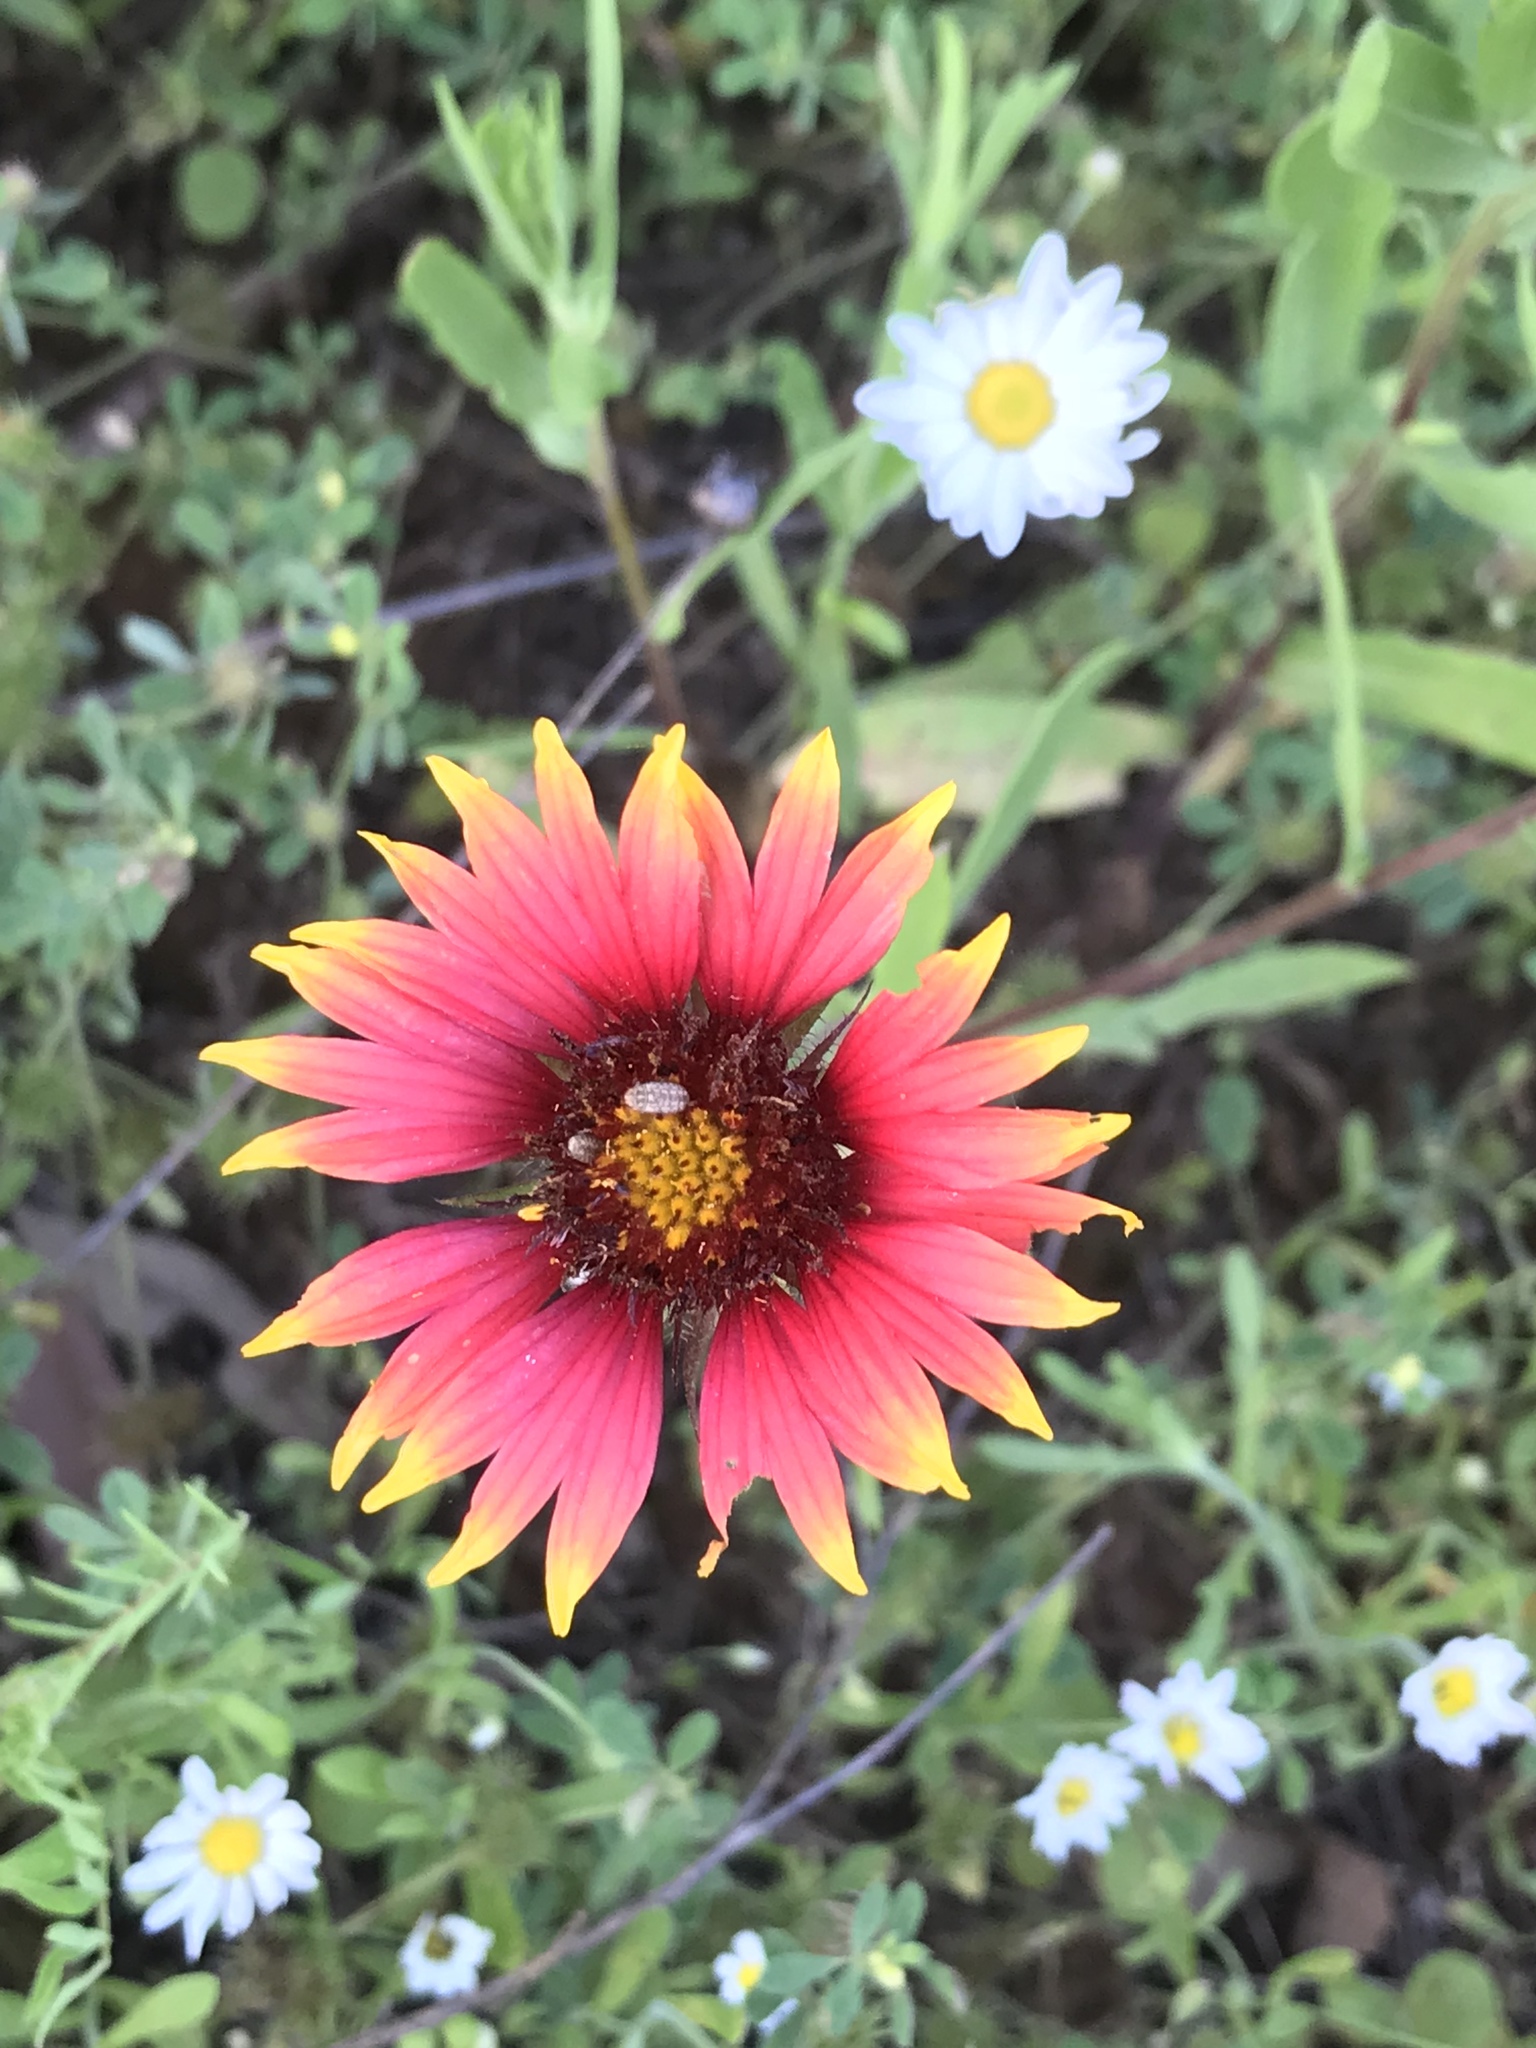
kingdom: Plantae
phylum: Tracheophyta
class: Magnoliopsida
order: Asterales
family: Asteraceae
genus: Gaillardia
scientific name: Gaillardia pulchella
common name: Firewheel
